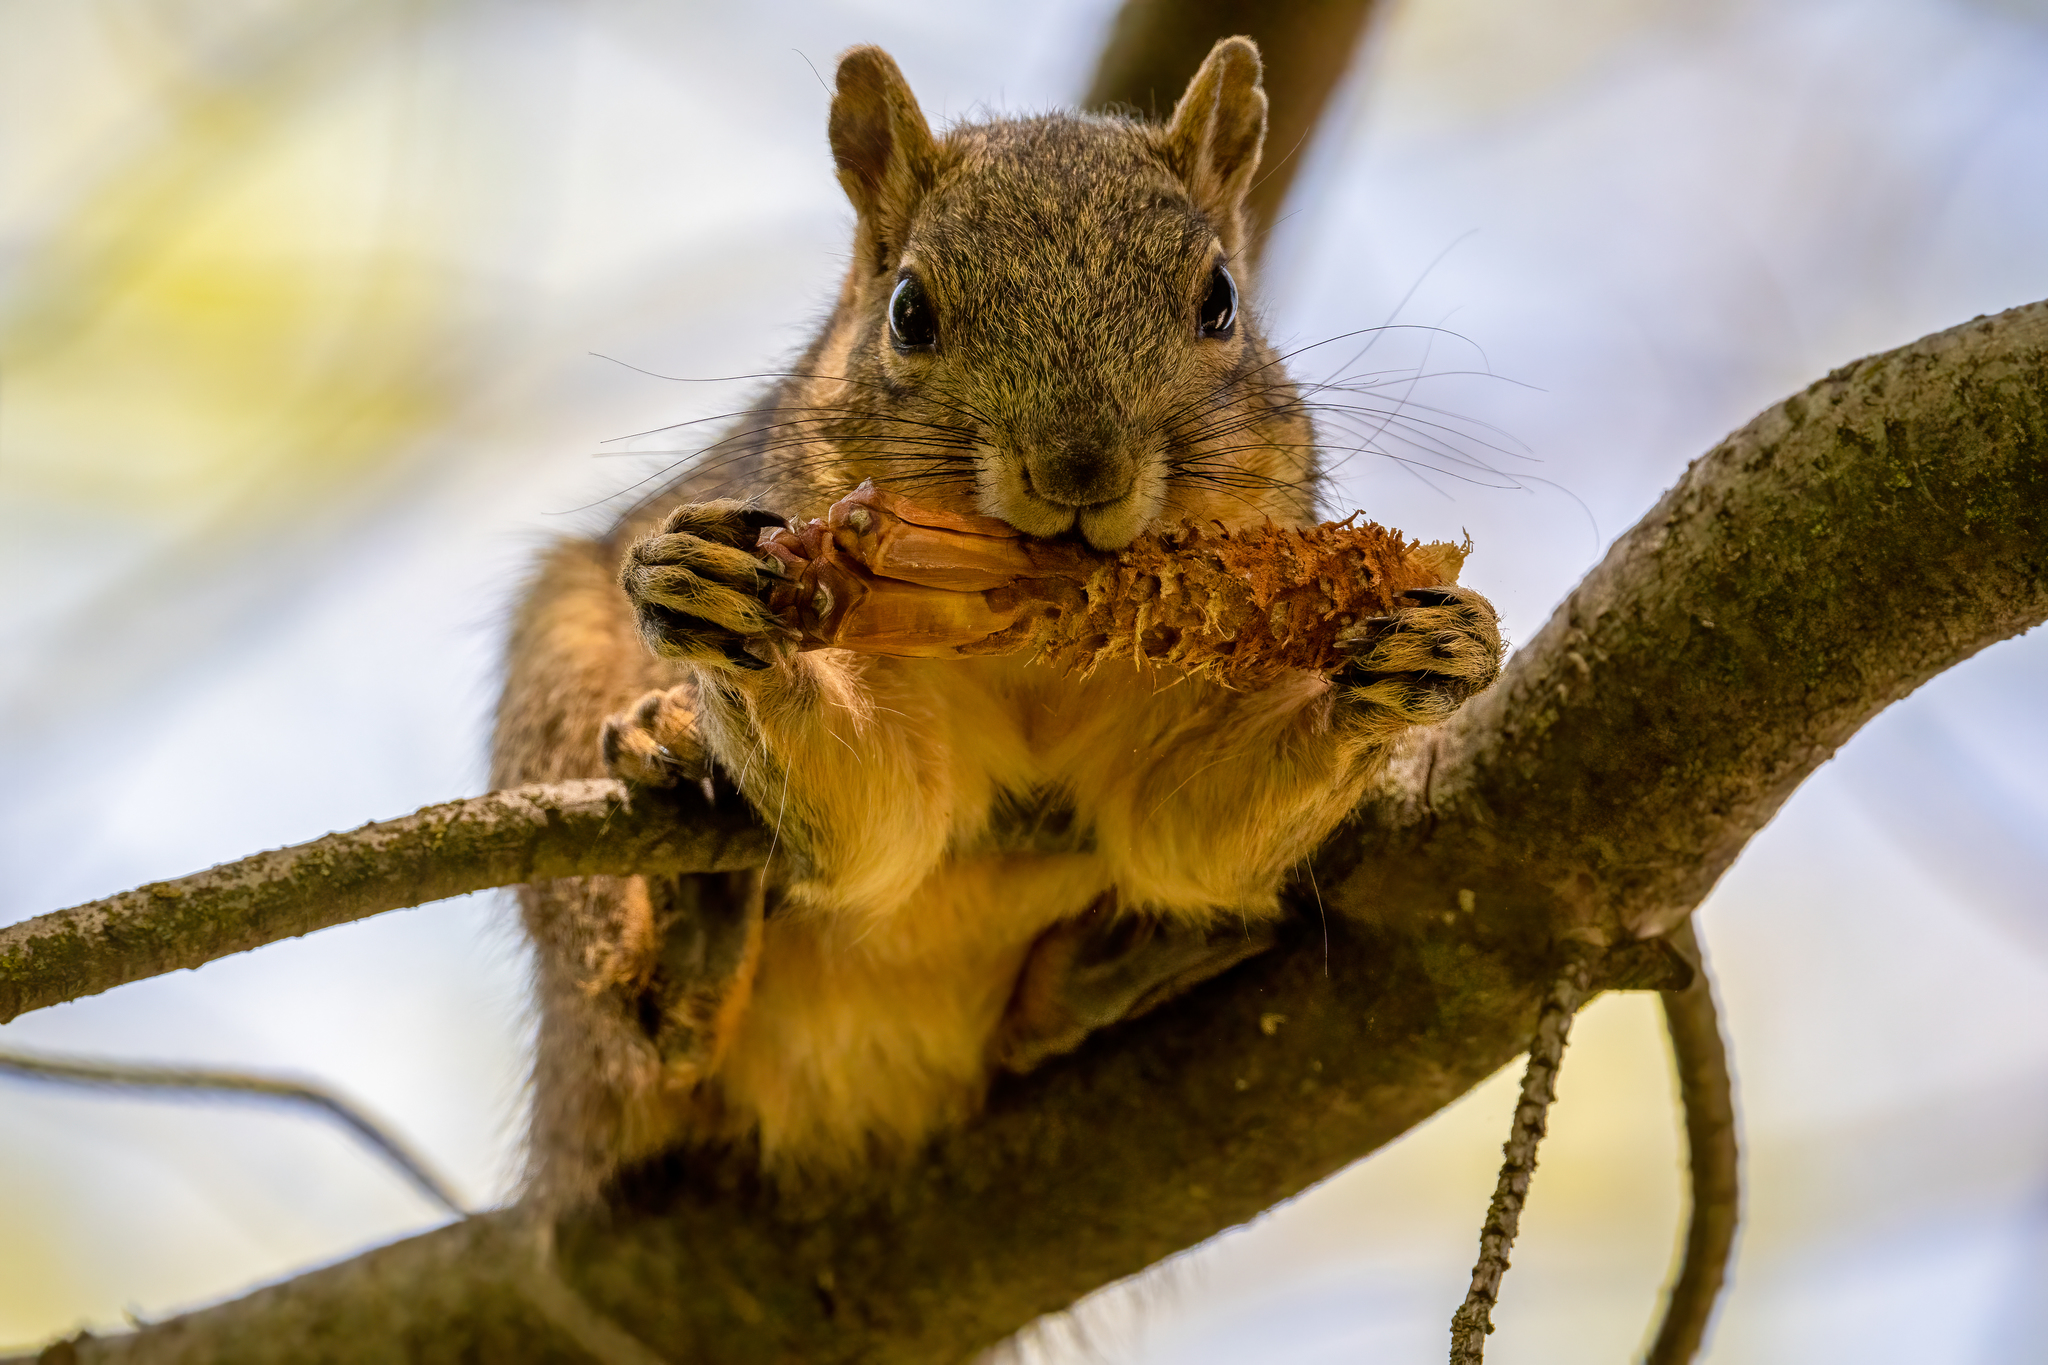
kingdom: Animalia
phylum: Chordata
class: Mammalia
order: Rodentia
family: Sciuridae
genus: Sciurus
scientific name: Sciurus niger
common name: Fox squirrel
